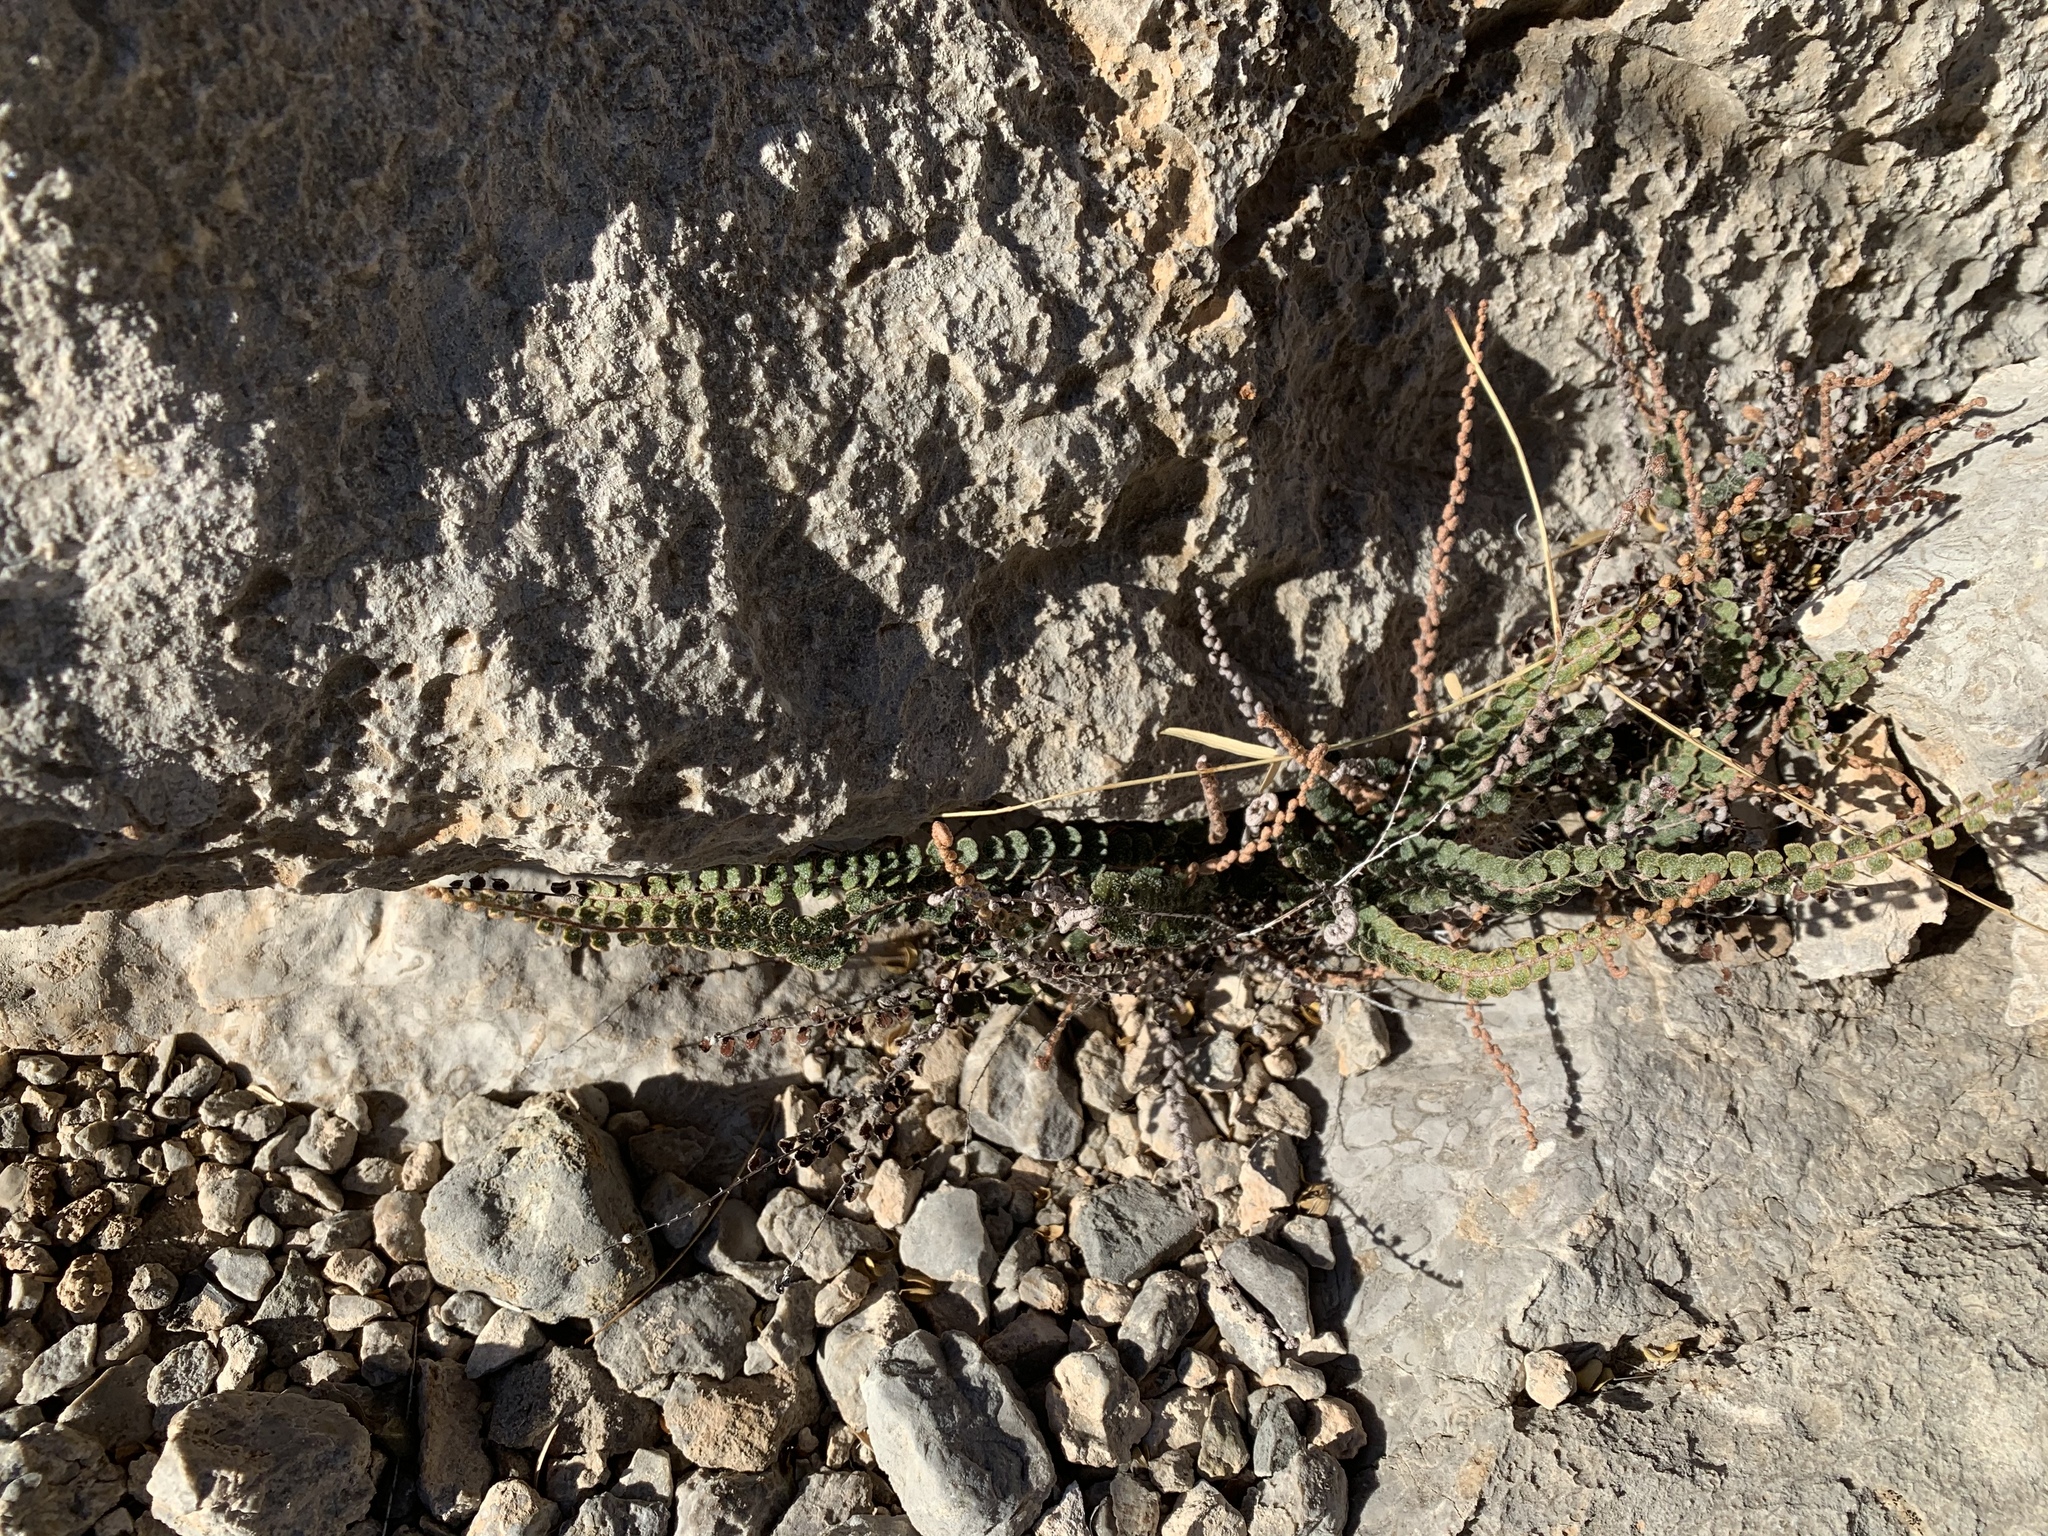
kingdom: Plantae
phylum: Tracheophyta
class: Polypodiopsida
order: Polypodiales
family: Pteridaceae
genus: Astrolepis
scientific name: Astrolepis cochisensis
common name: Scaly cloak fern
